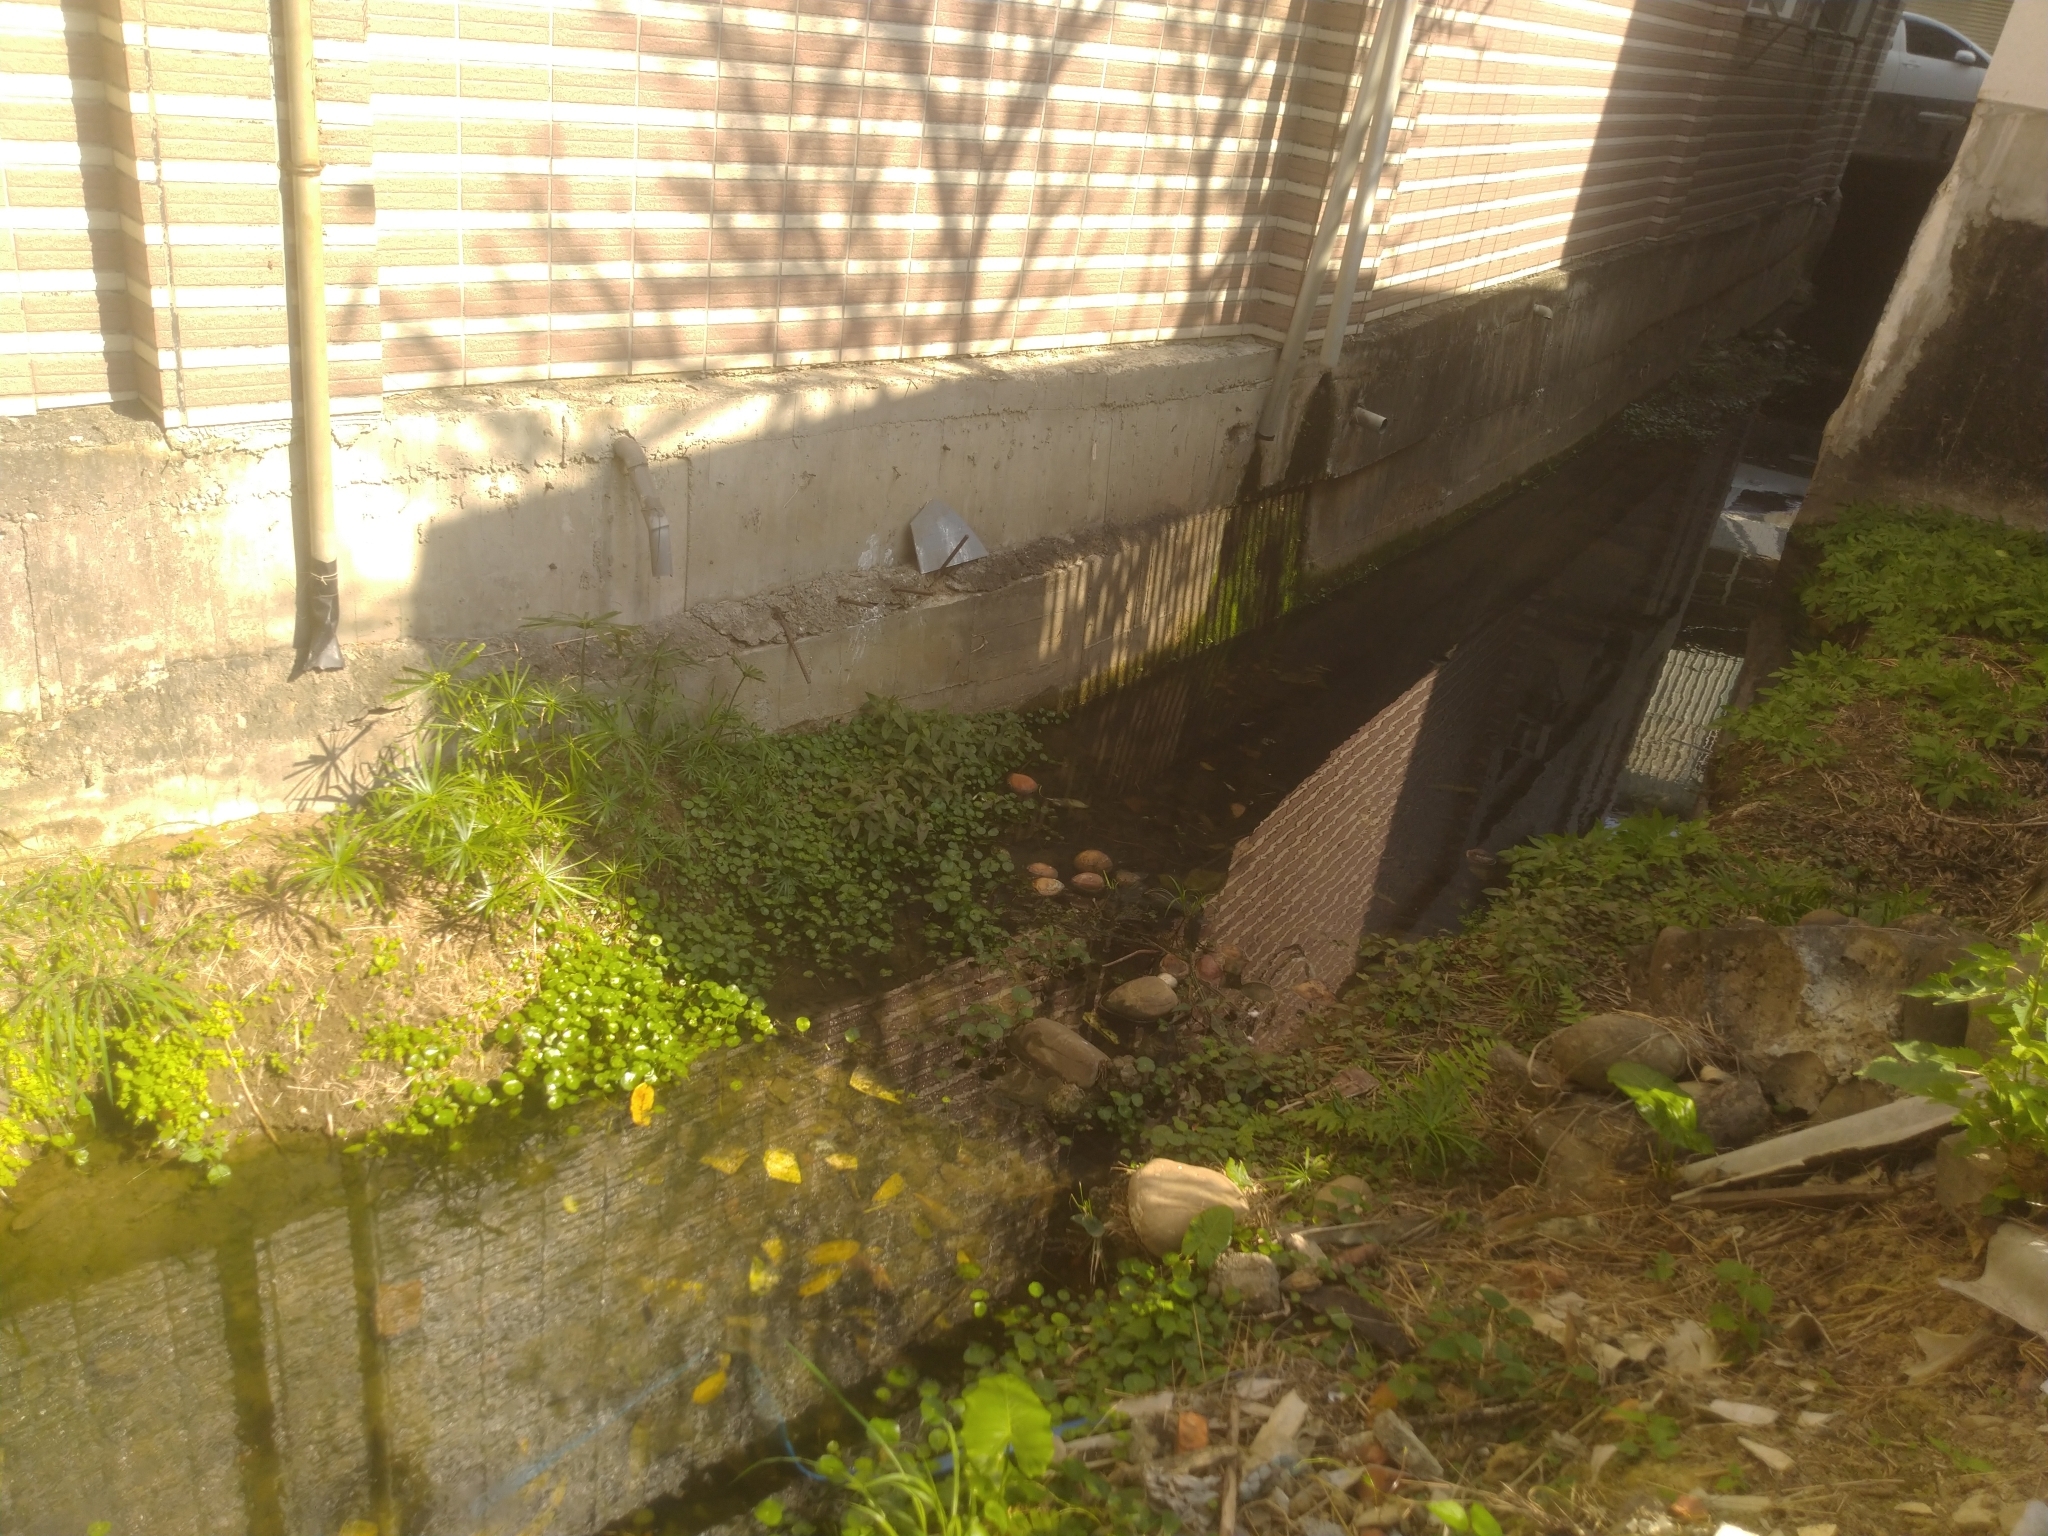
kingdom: Plantae
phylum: Tracheophyta
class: Liliopsida
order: Poales
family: Cyperaceae
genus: Cyperus
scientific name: Cyperus alternifolius
